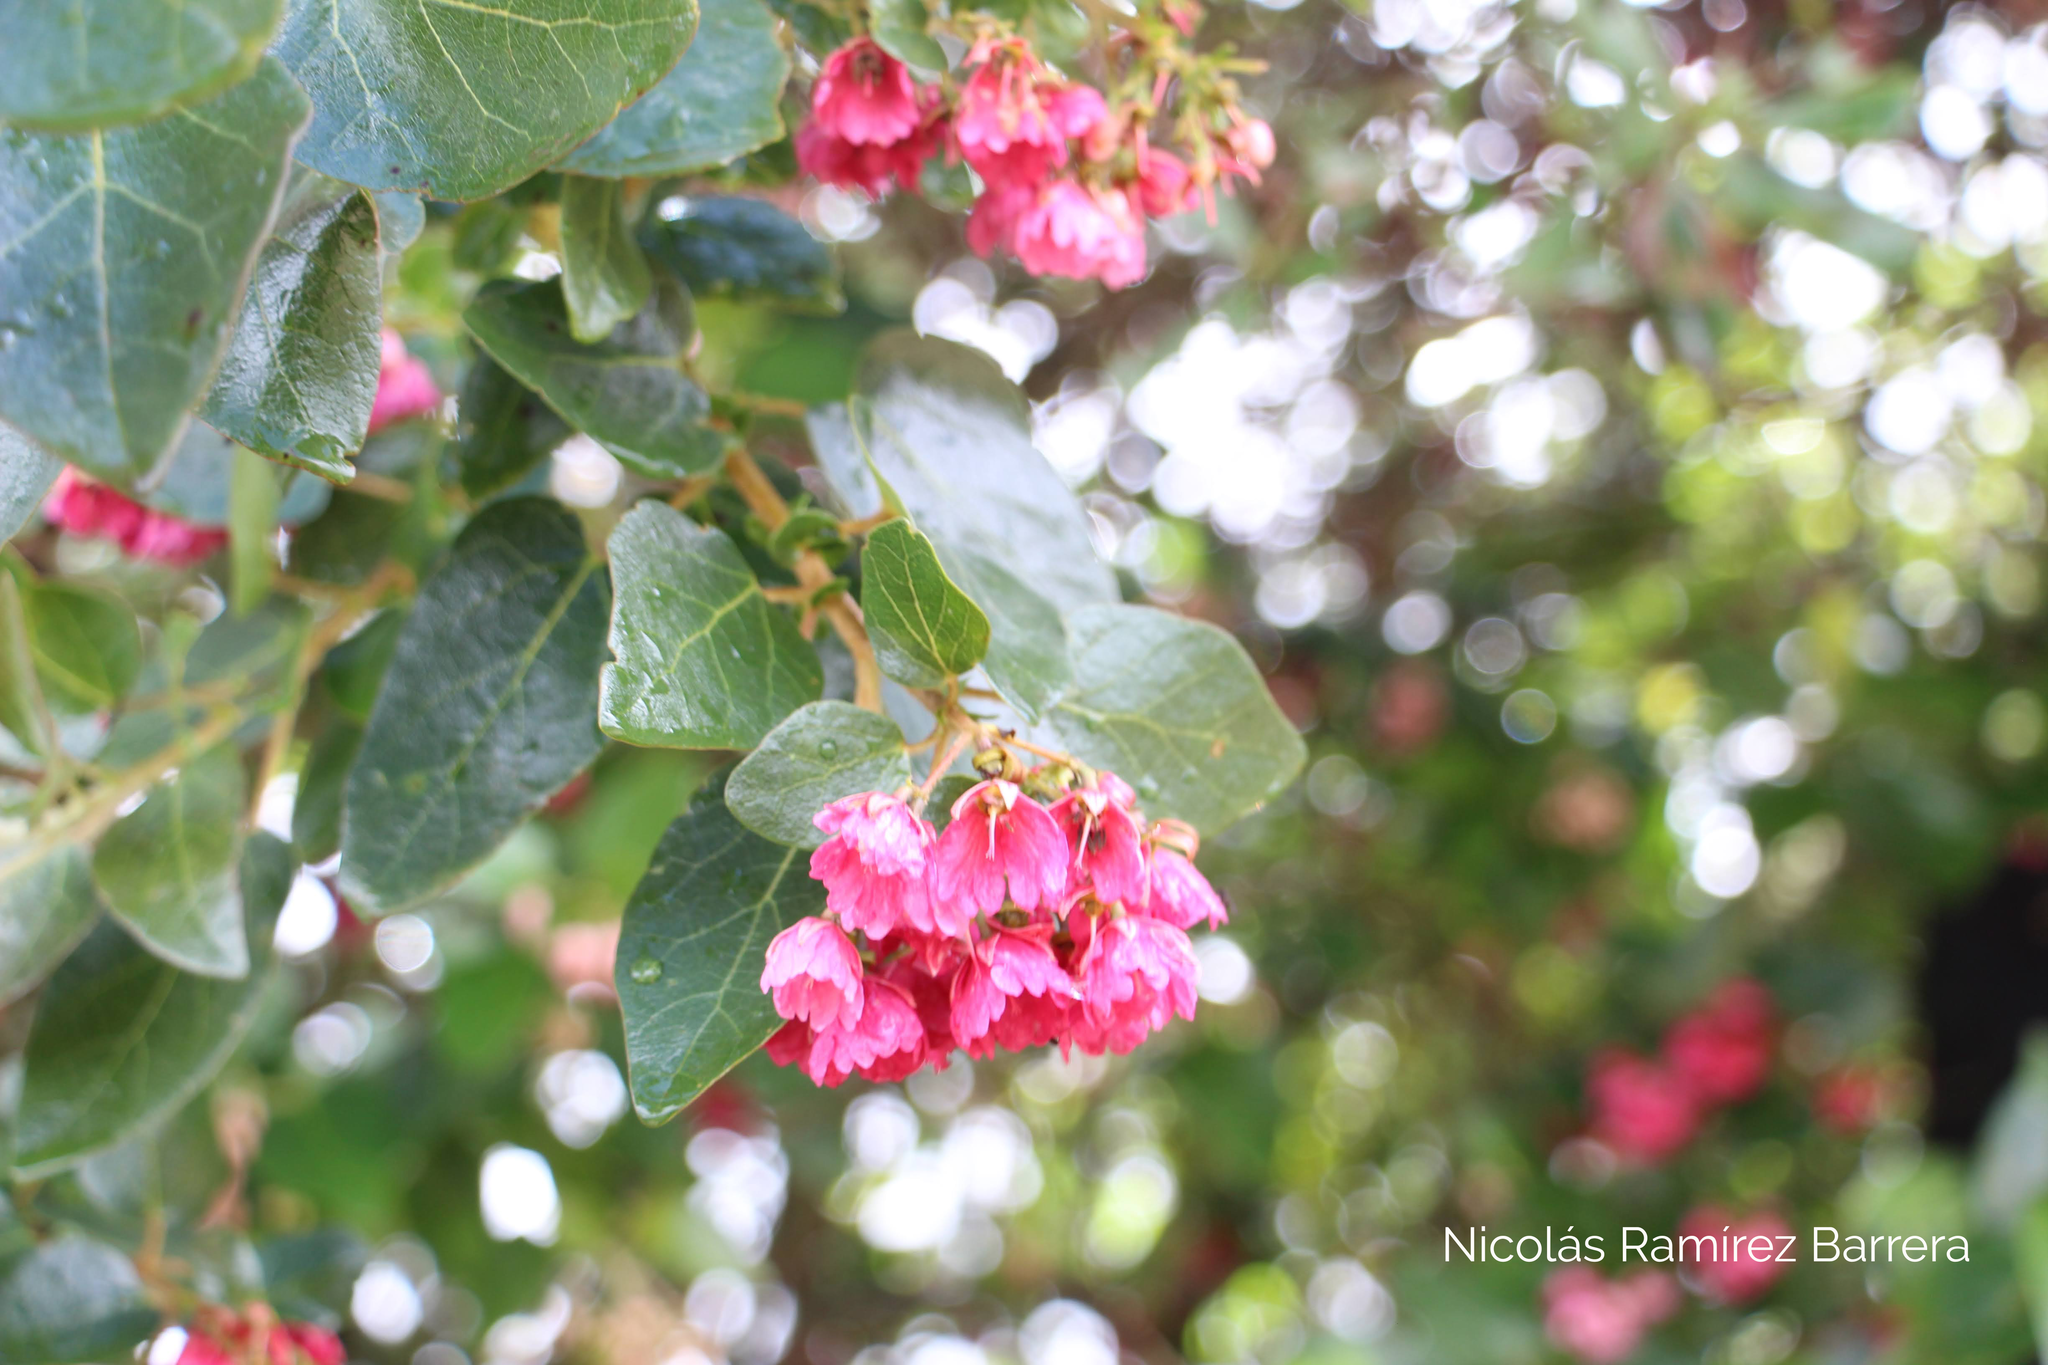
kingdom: Plantae
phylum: Tracheophyta
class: Magnoliopsida
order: Oxalidales
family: Elaeocarpaceae
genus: Vallea
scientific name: Vallea stipularis
